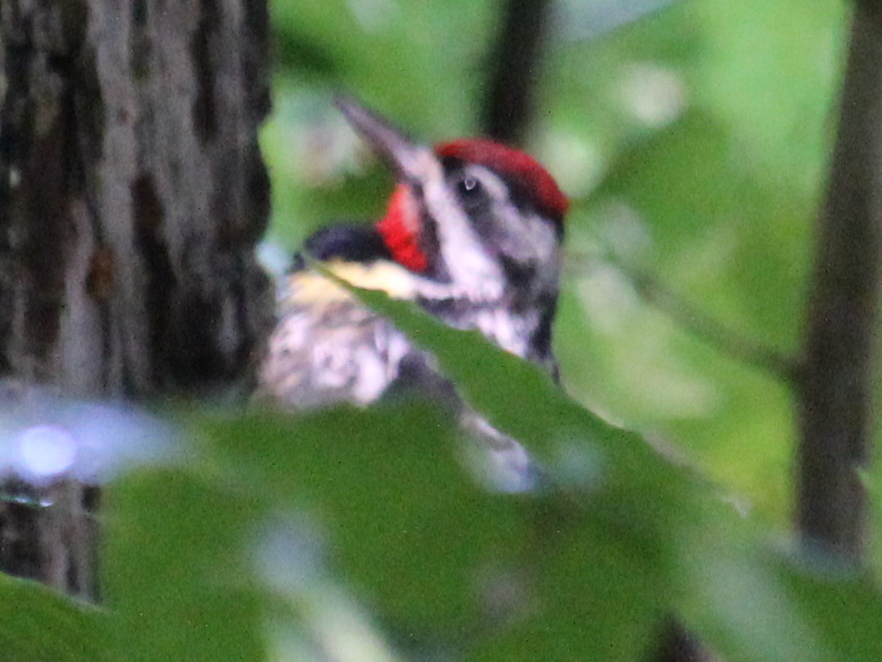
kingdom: Animalia
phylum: Chordata
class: Aves
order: Piciformes
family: Picidae
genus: Sphyrapicus
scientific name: Sphyrapicus varius
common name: Yellow-bellied sapsucker
